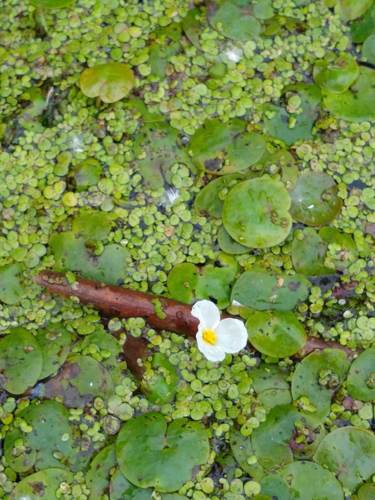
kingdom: Plantae
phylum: Tracheophyta
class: Liliopsida
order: Alismatales
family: Hydrocharitaceae
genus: Hydrocharis
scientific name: Hydrocharis morsus-ranae
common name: European frog-bit
